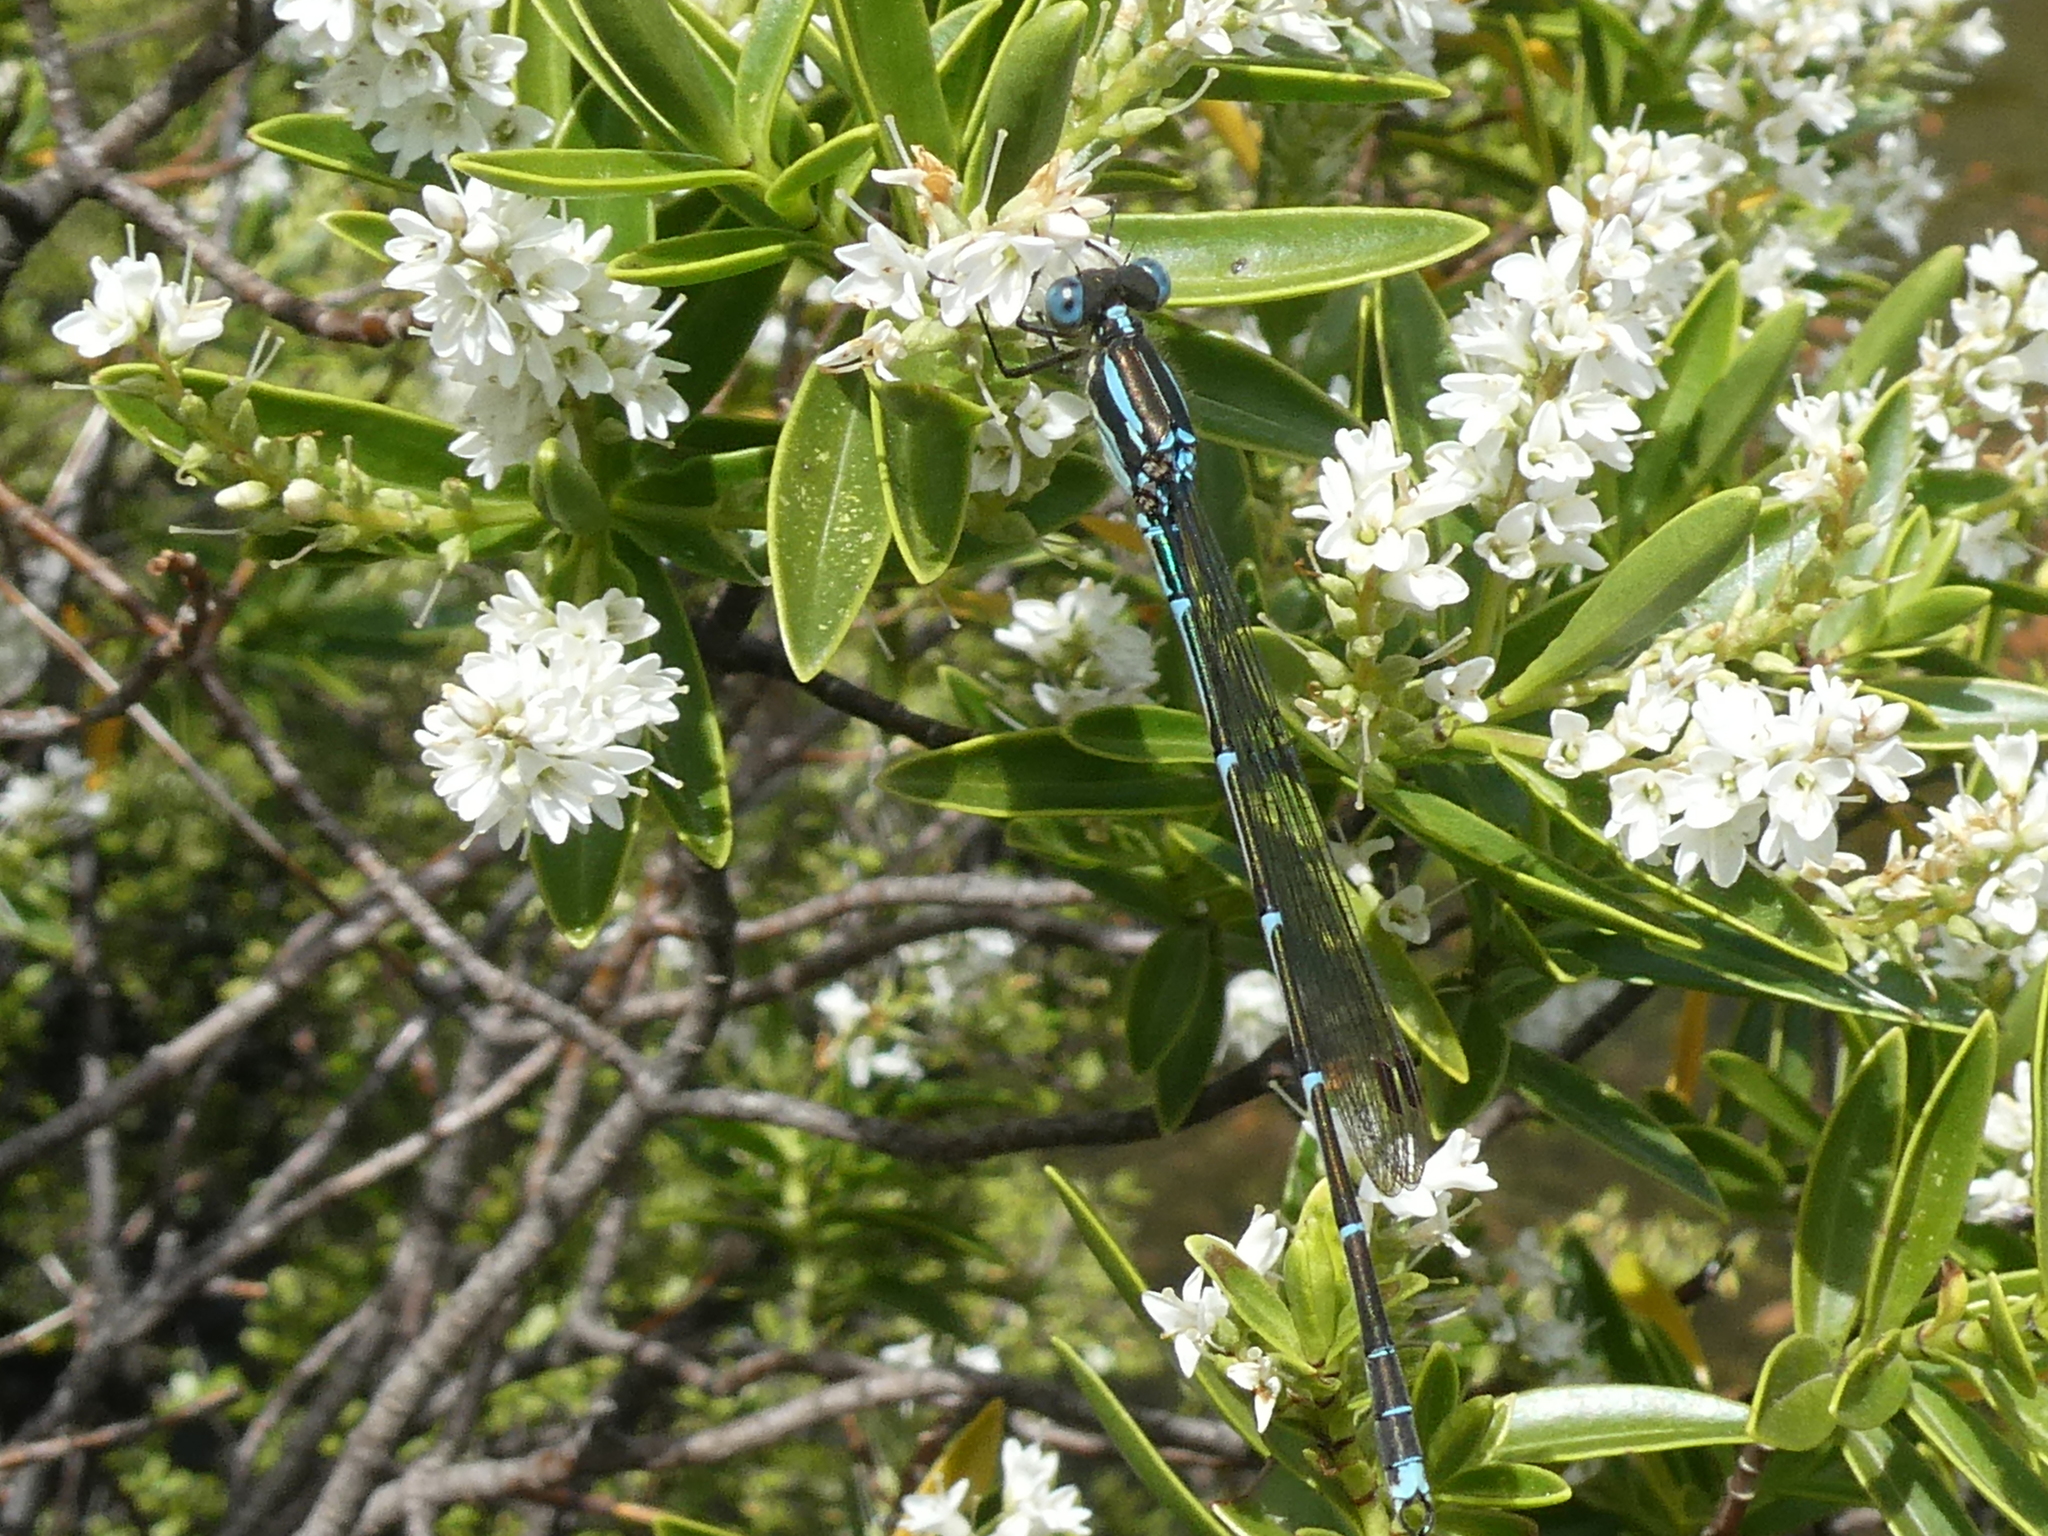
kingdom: Animalia
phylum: Arthropoda
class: Insecta
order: Odonata
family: Lestidae
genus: Austrolestes
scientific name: Austrolestes colensonis
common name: Blue damselfly
